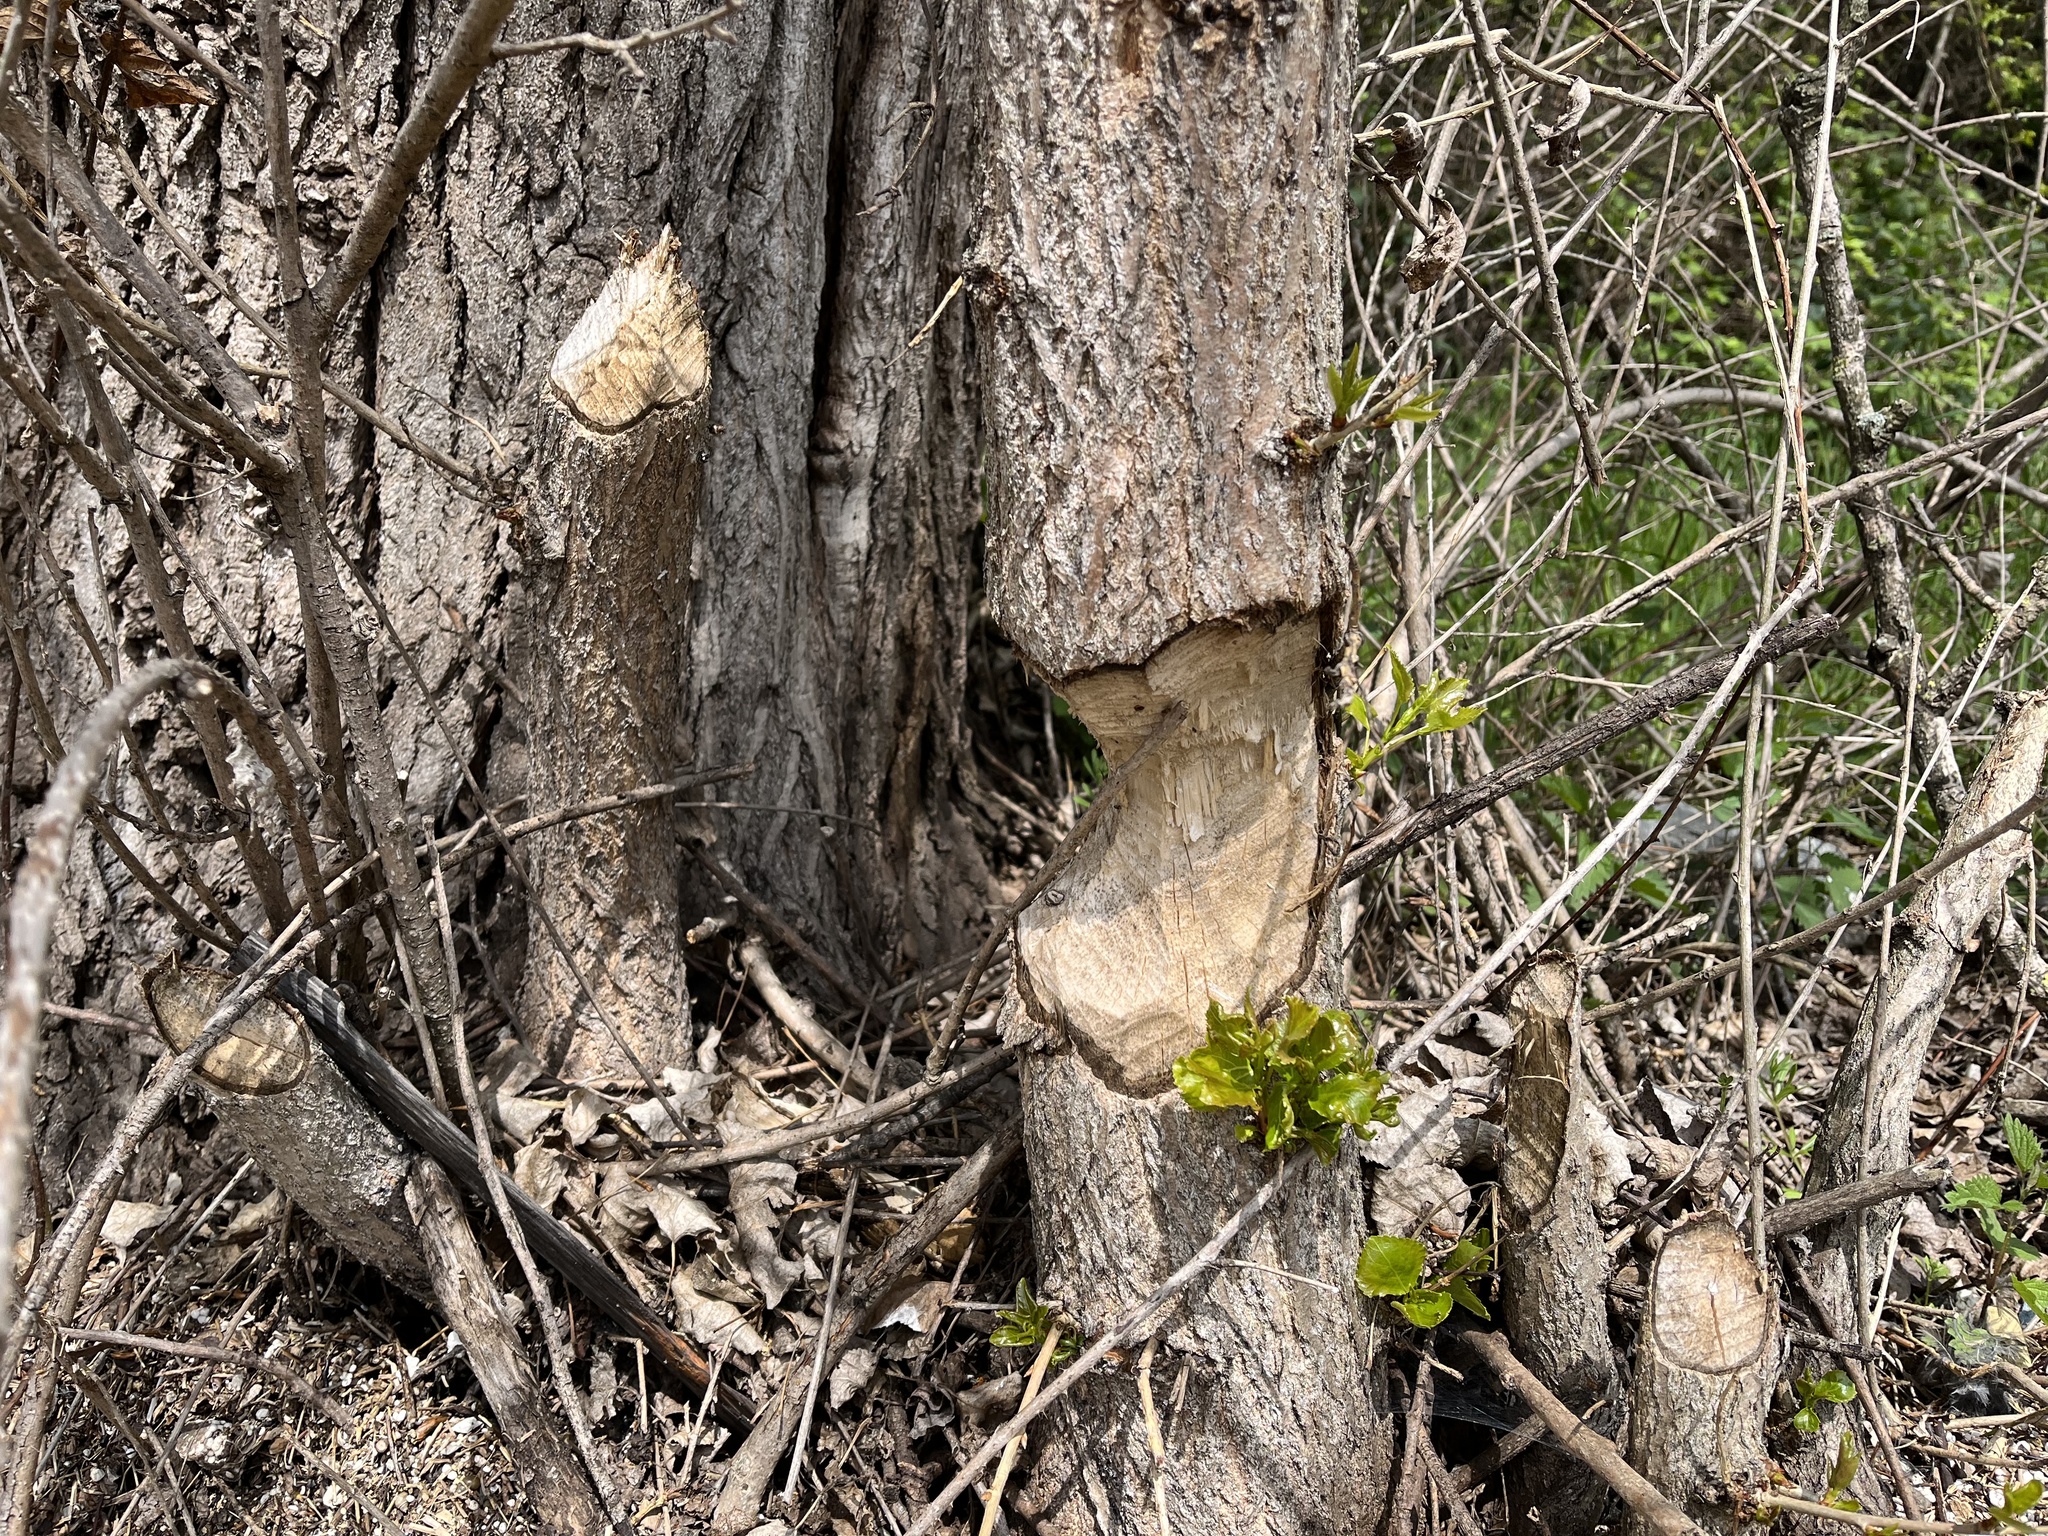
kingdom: Animalia
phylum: Chordata
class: Mammalia
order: Rodentia
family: Castoridae
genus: Castor
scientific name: Castor fiber
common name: Eurasian beaver
